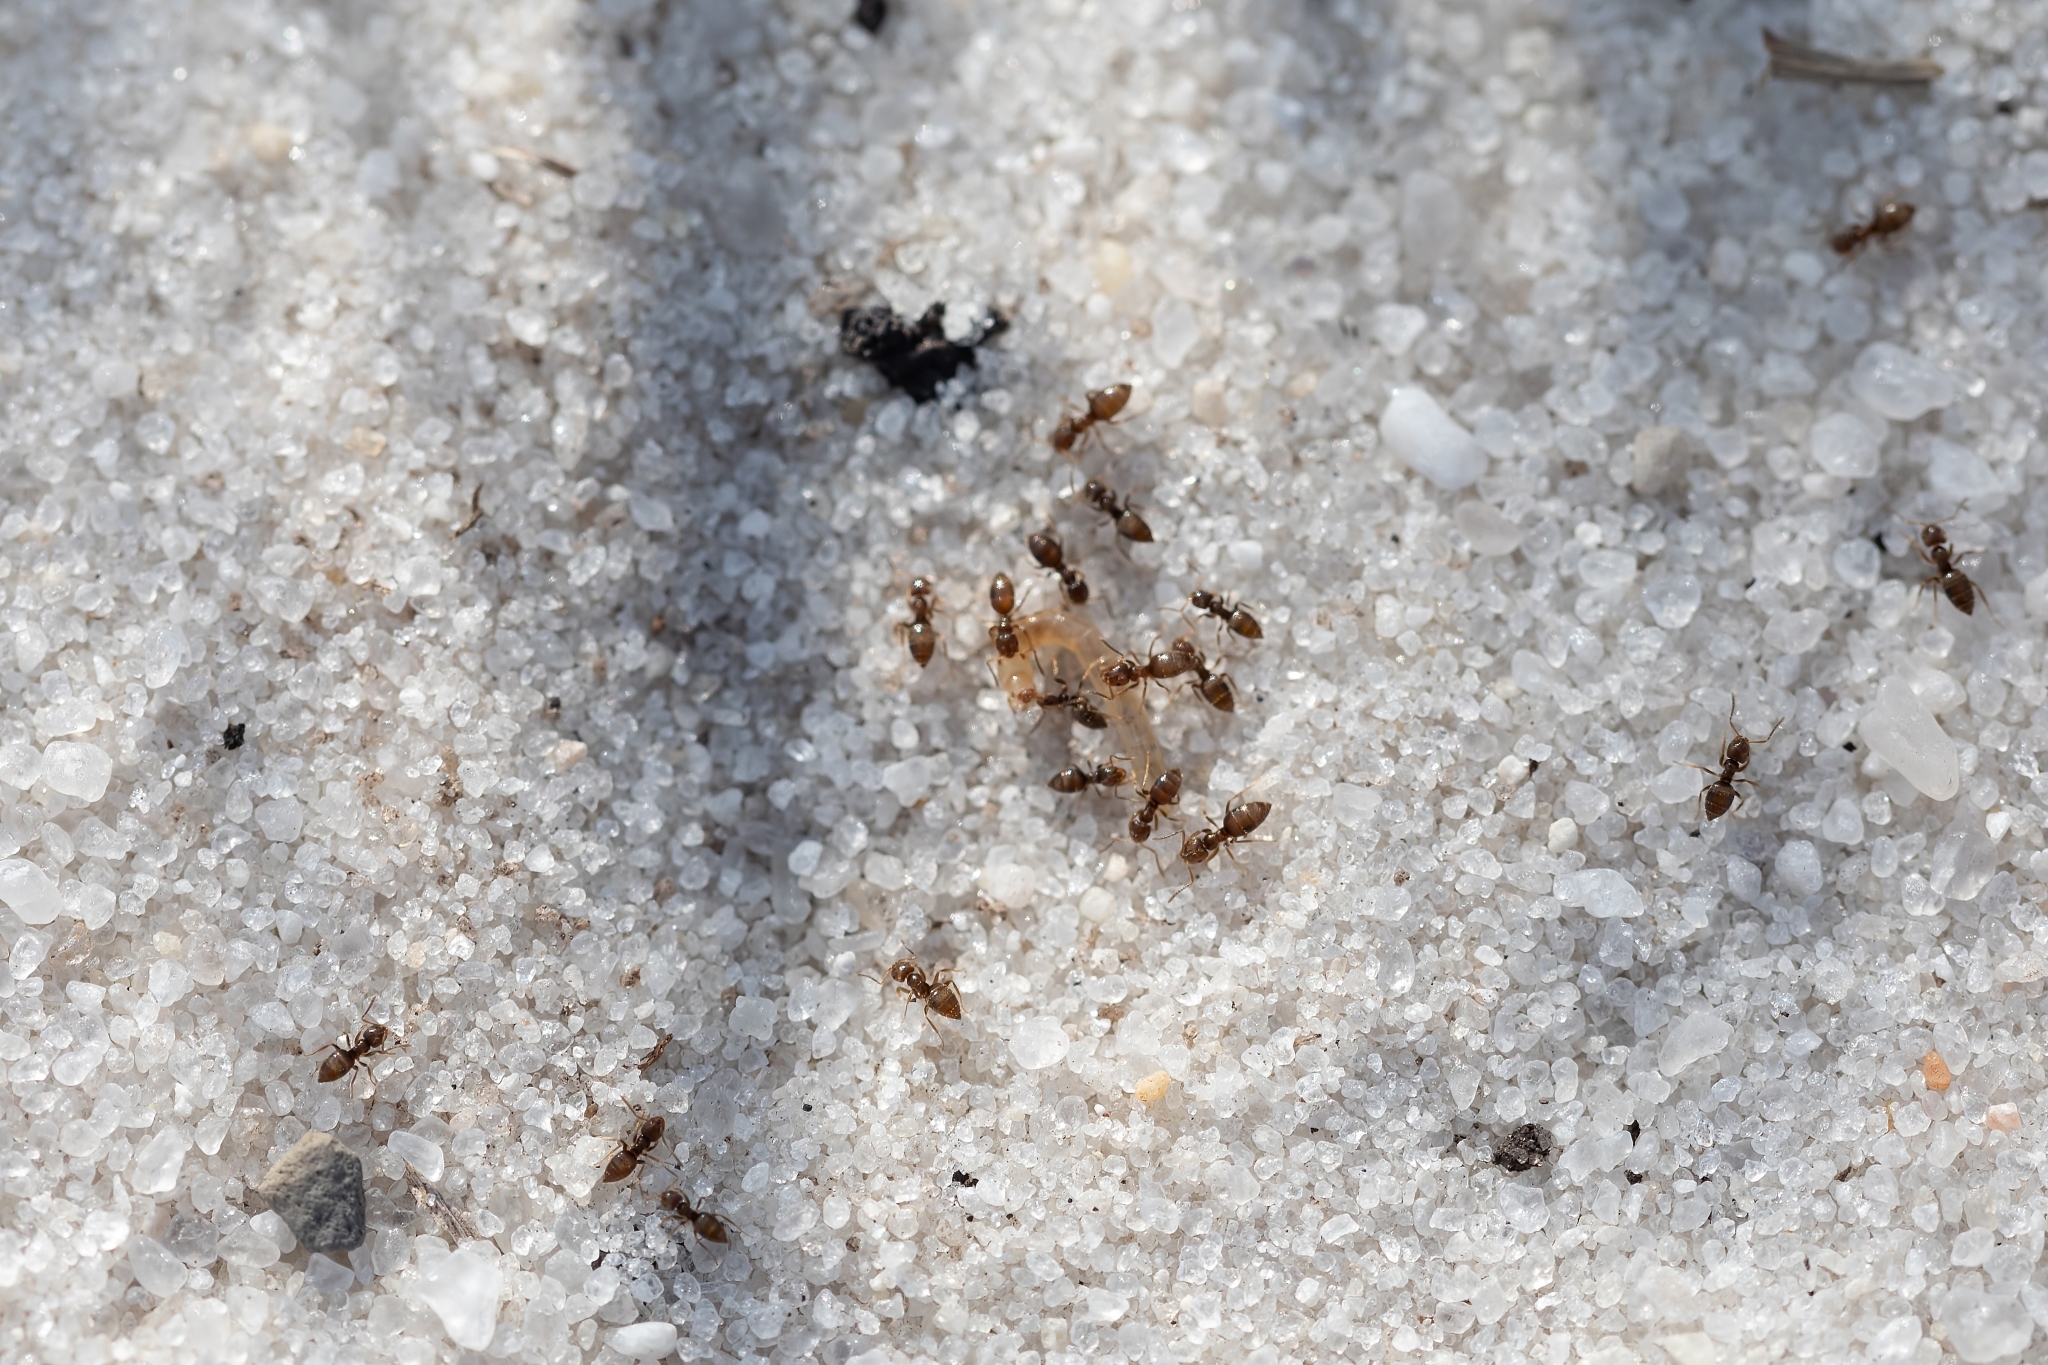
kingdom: Animalia
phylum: Arthropoda
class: Insecta
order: Hymenoptera
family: Formicidae
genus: Brachymyrmex
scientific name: Brachymyrmex obscurior
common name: Obscure rover ant
